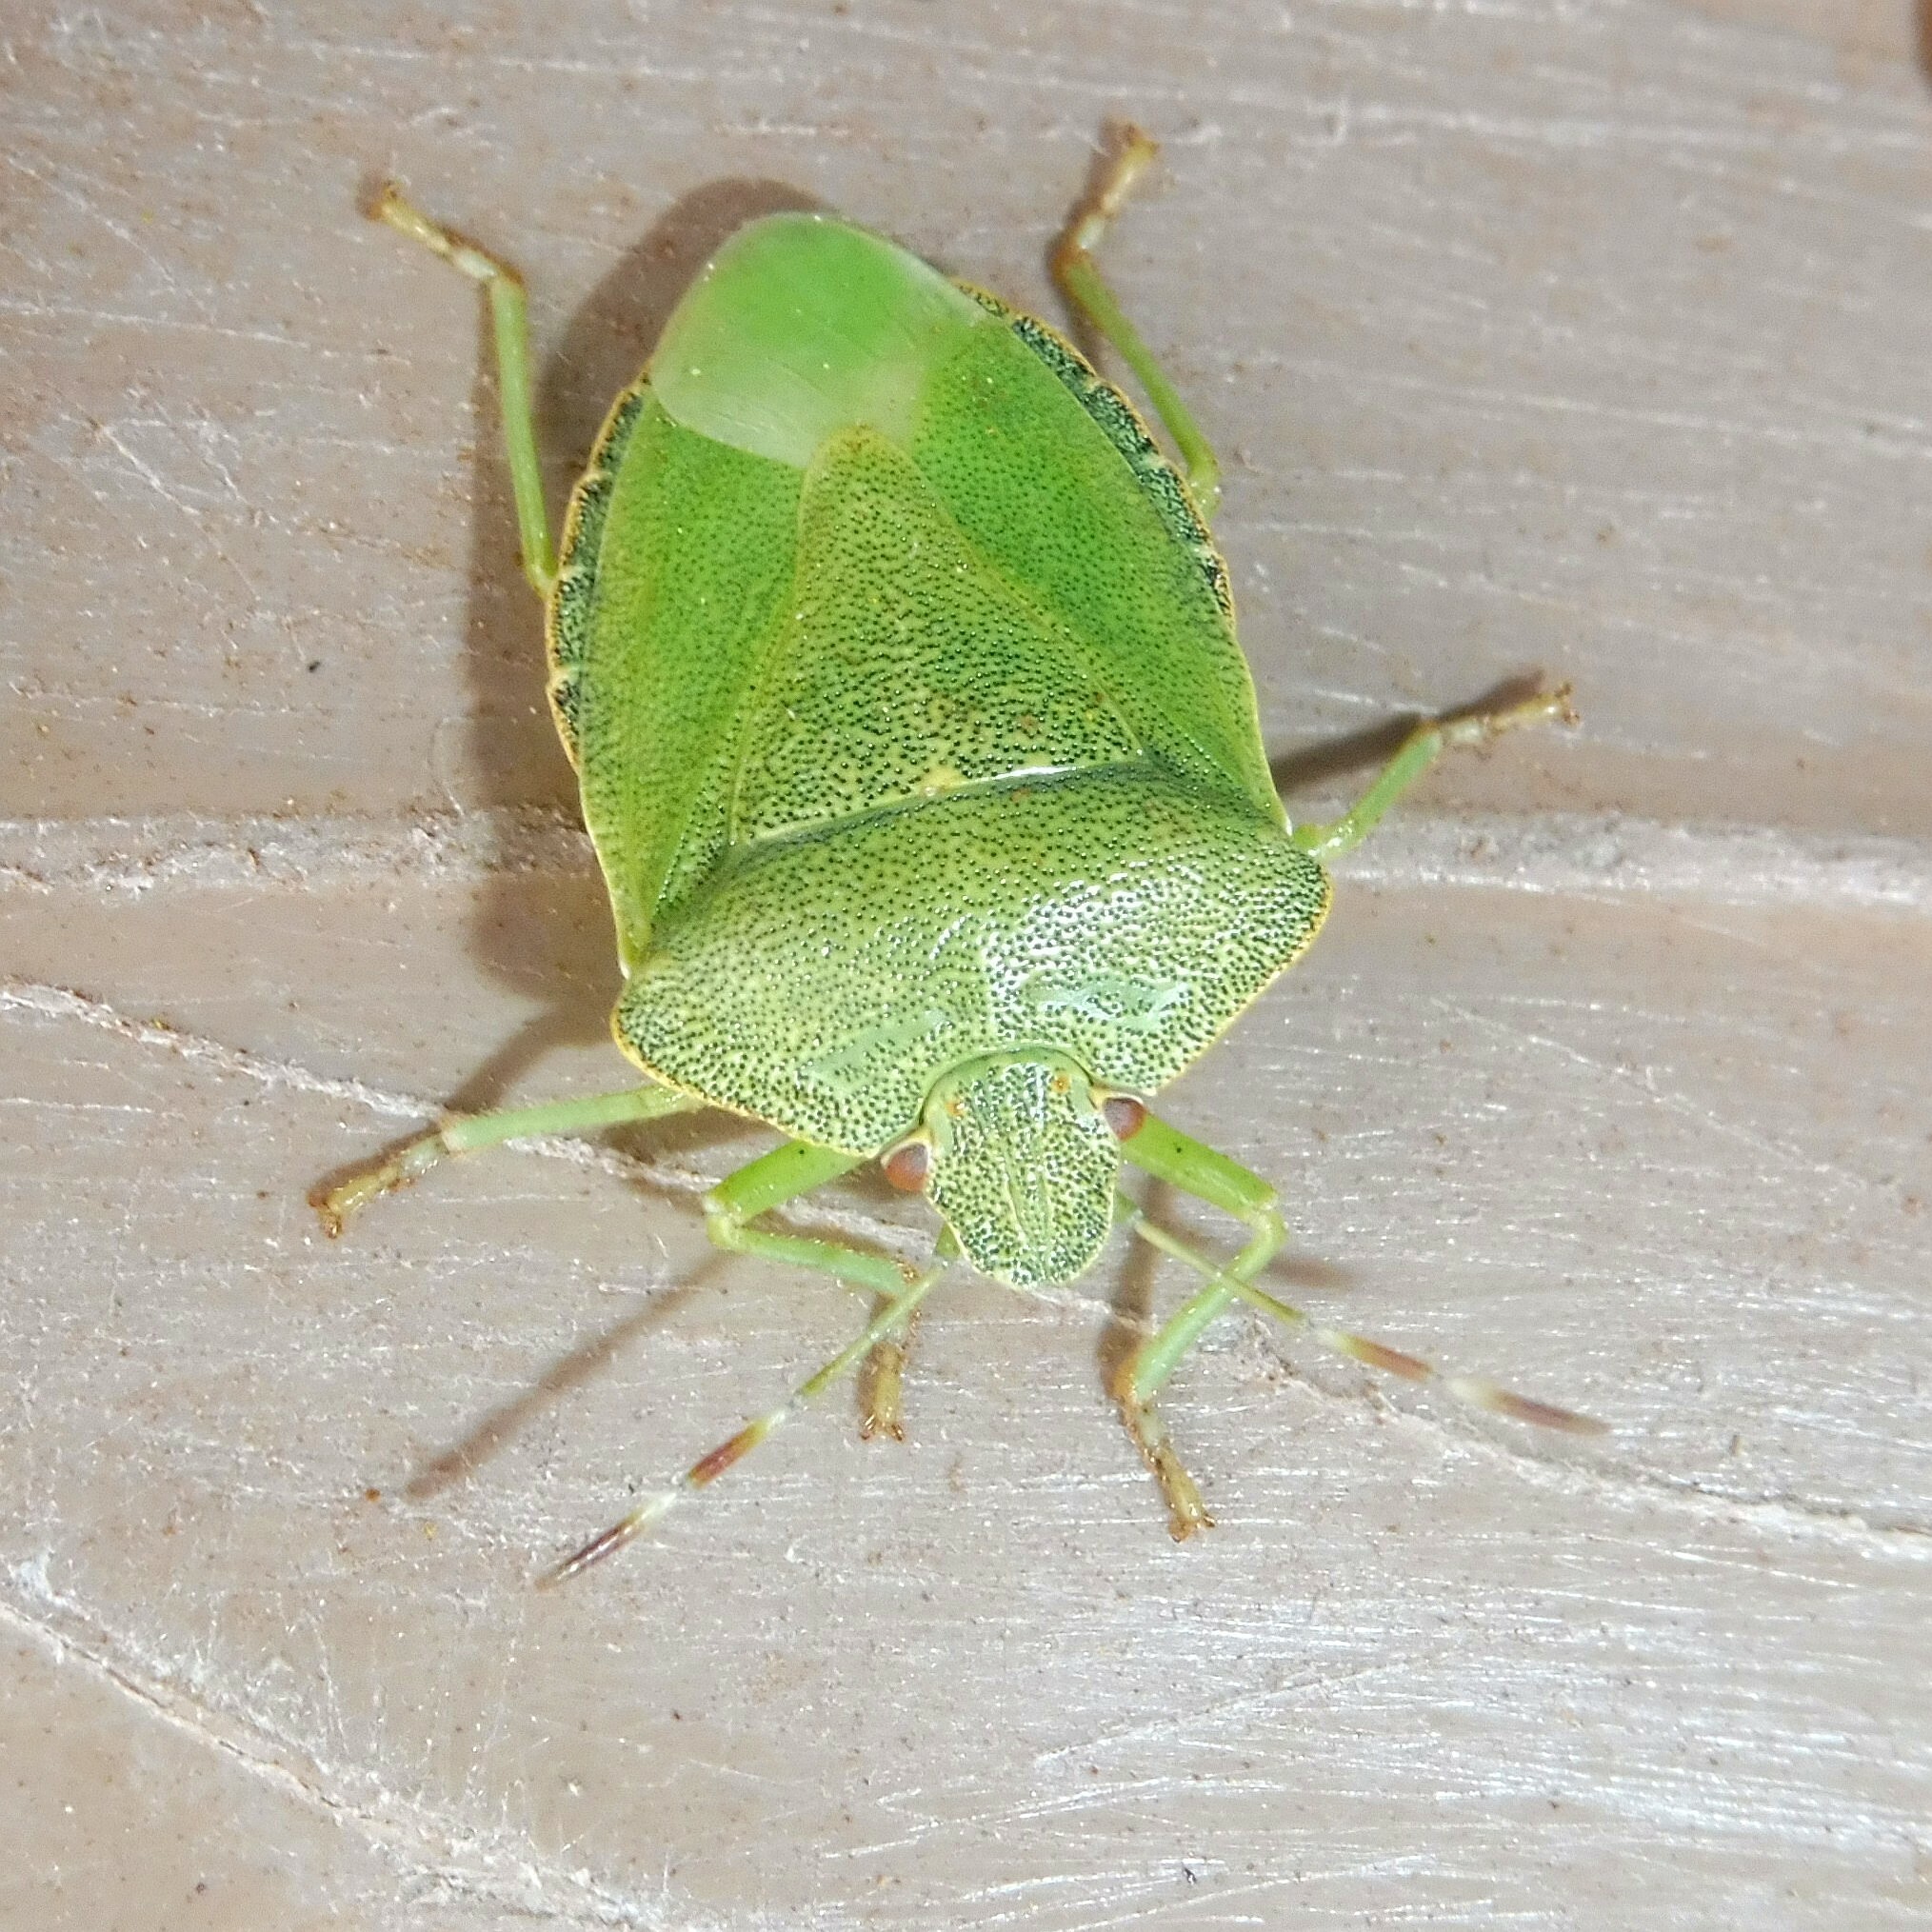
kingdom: Animalia
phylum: Arthropoda
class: Insecta
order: Hemiptera
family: Pentatomidae
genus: Palomena
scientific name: Palomena prasina
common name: Green shieldbug
